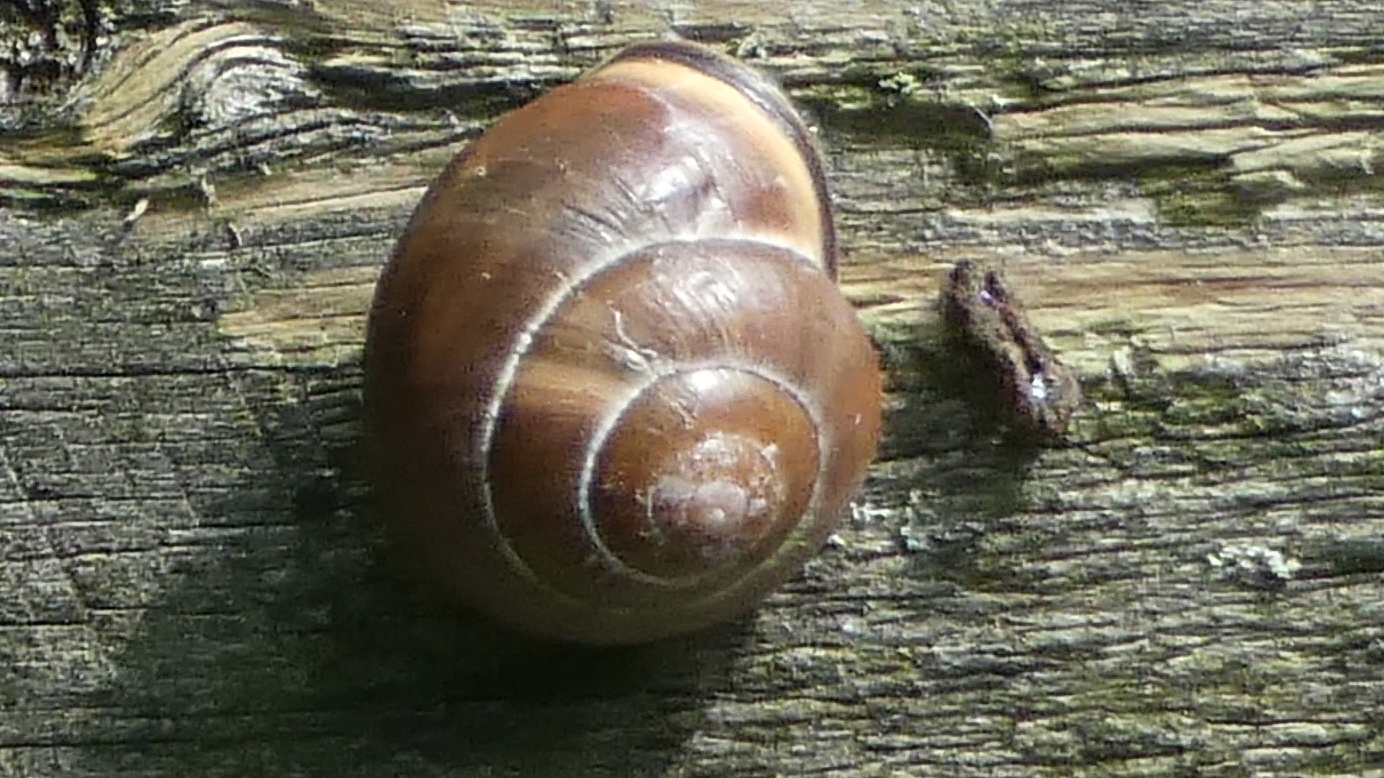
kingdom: Animalia
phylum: Mollusca
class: Gastropoda
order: Stylommatophora
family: Helicidae
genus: Cepaea
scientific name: Cepaea nemoralis
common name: Grovesnail
